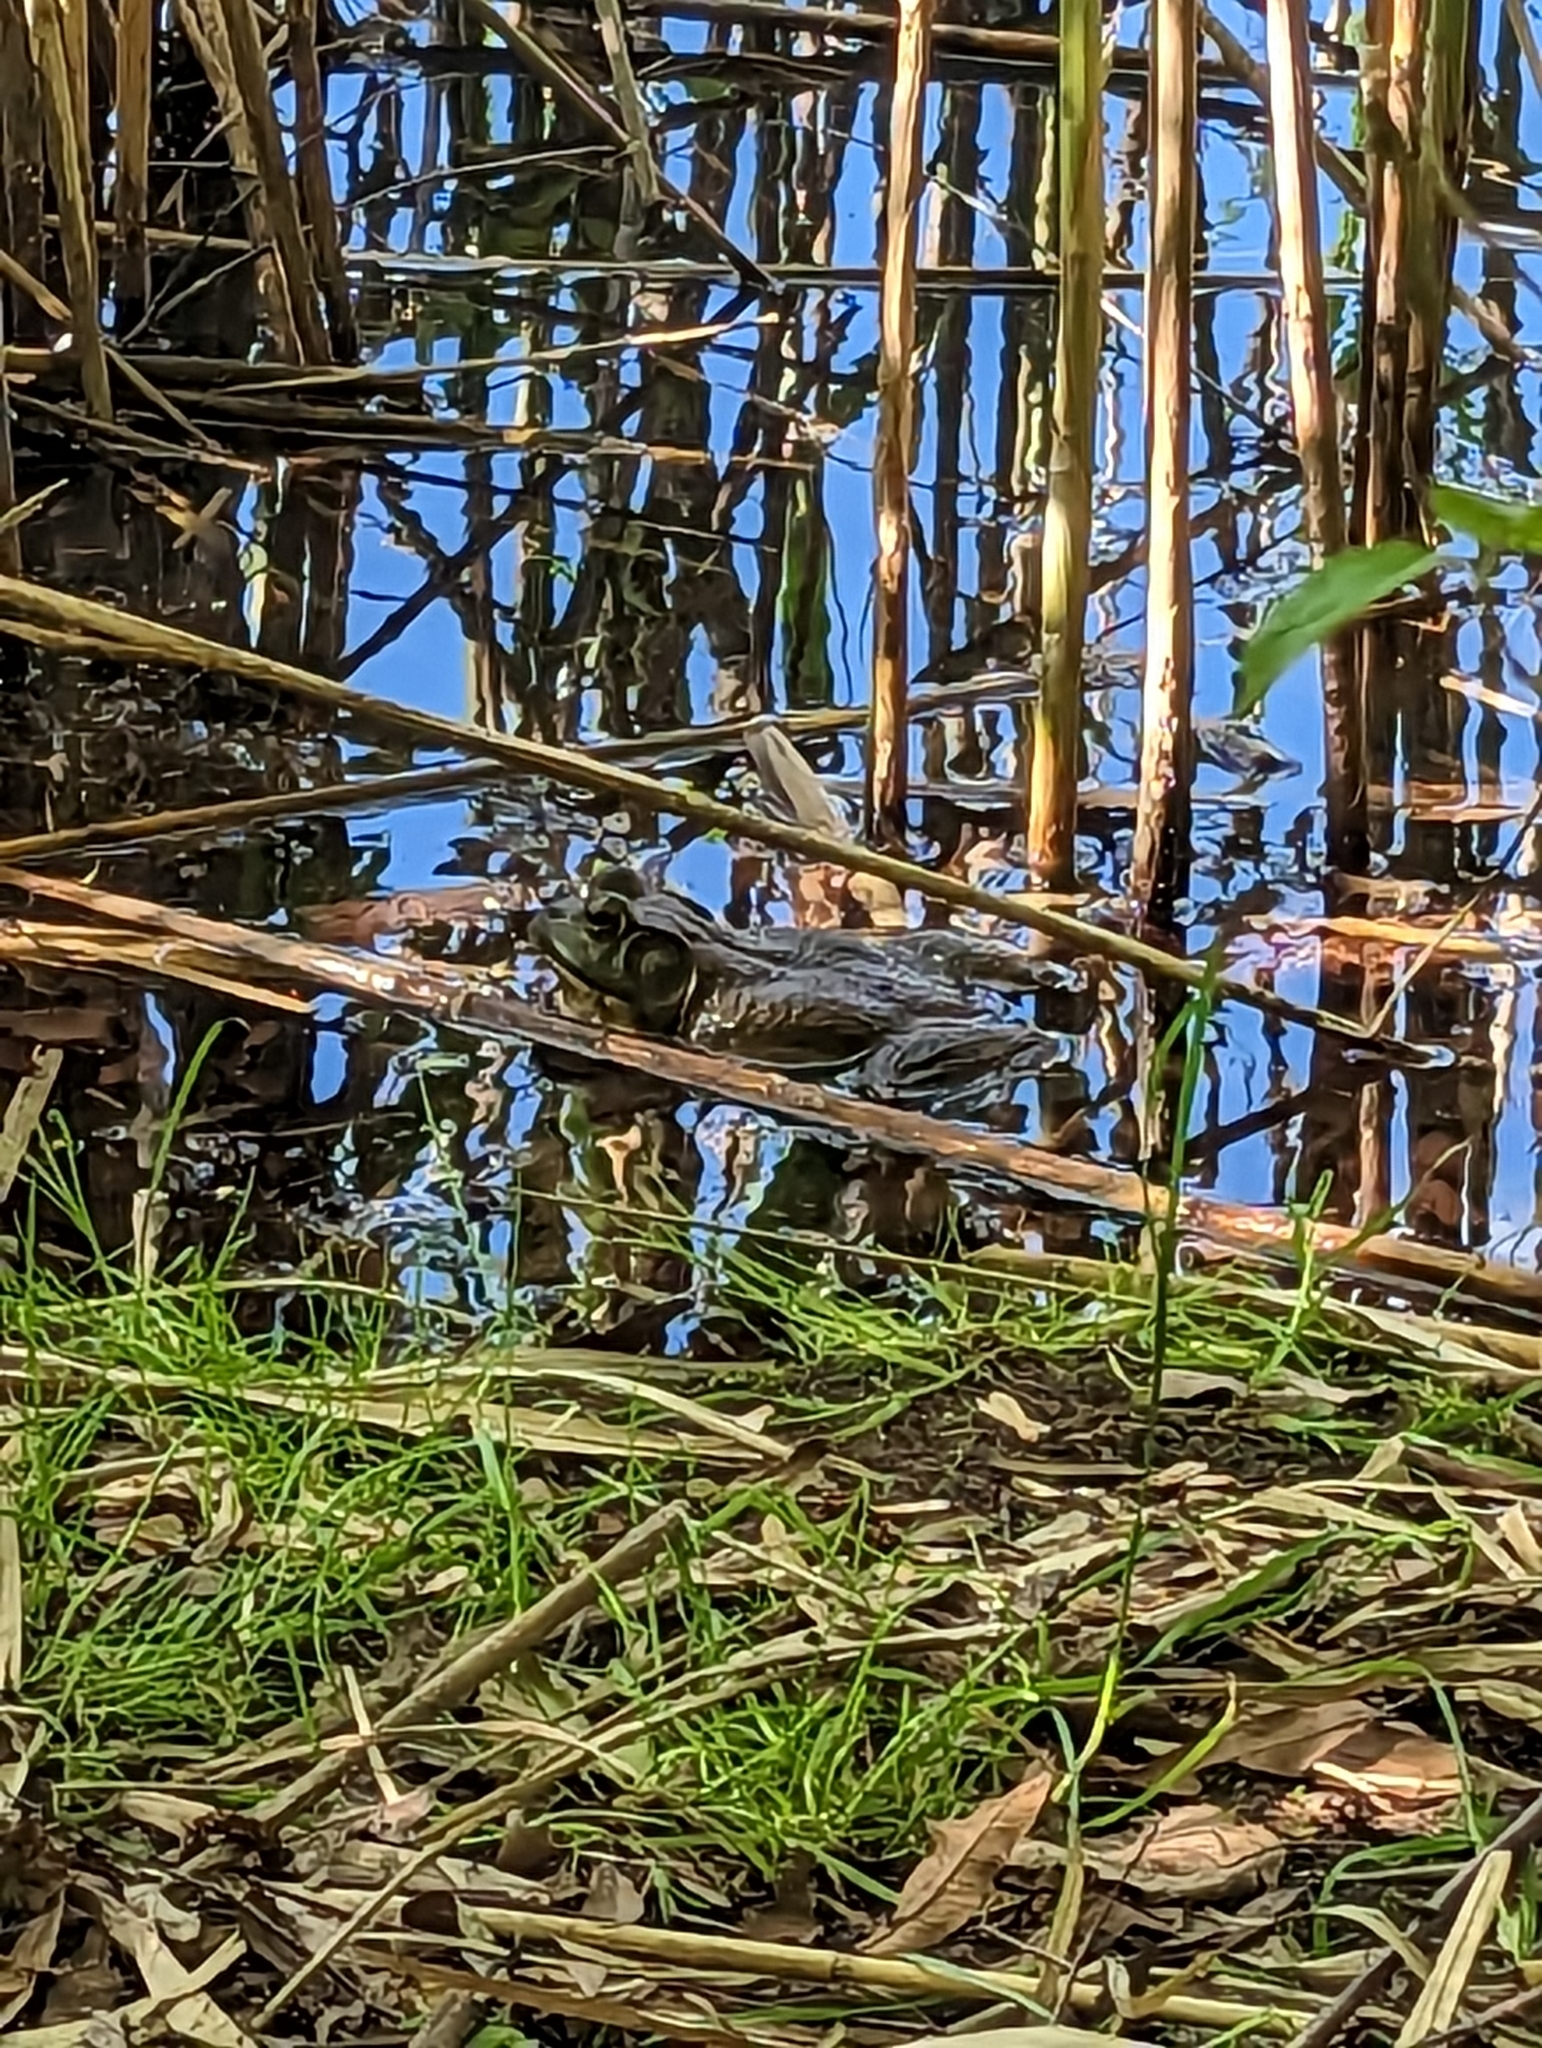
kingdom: Animalia
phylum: Chordata
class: Amphibia
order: Anura
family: Ranidae
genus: Lithobates
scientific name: Lithobates catesbeianus
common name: American bullfrog
